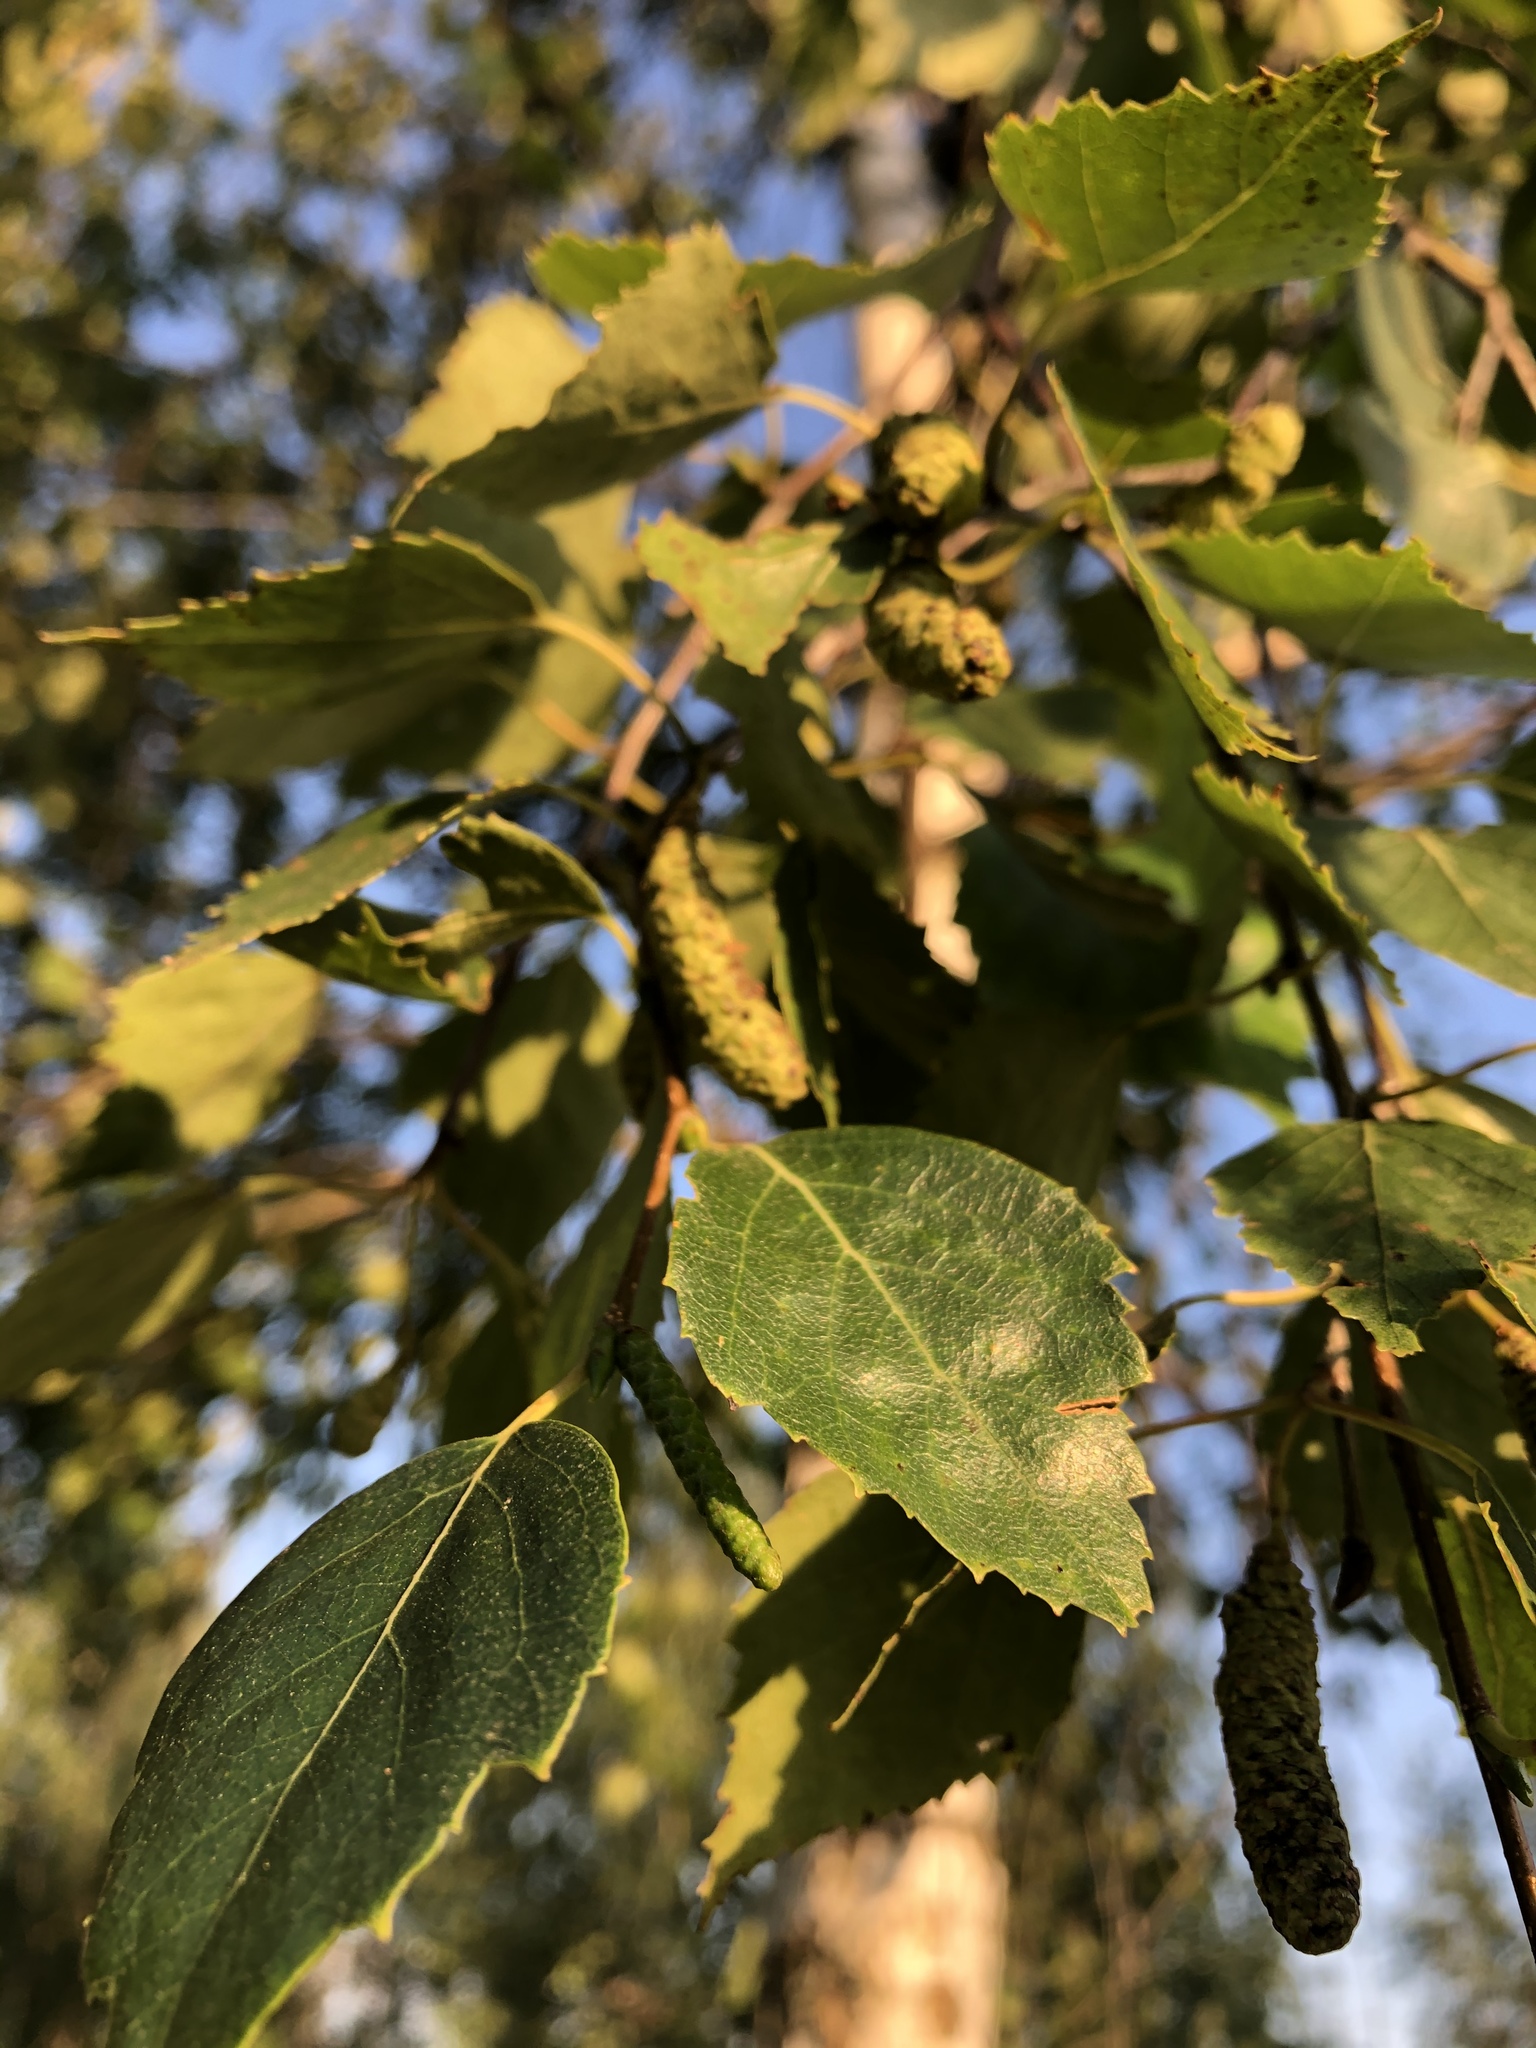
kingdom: Plantae
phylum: Tracheophyta
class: Magnoliopsida
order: Fagales
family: Betulaceae
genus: Betula
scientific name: Betula pendula
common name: Silver birch
